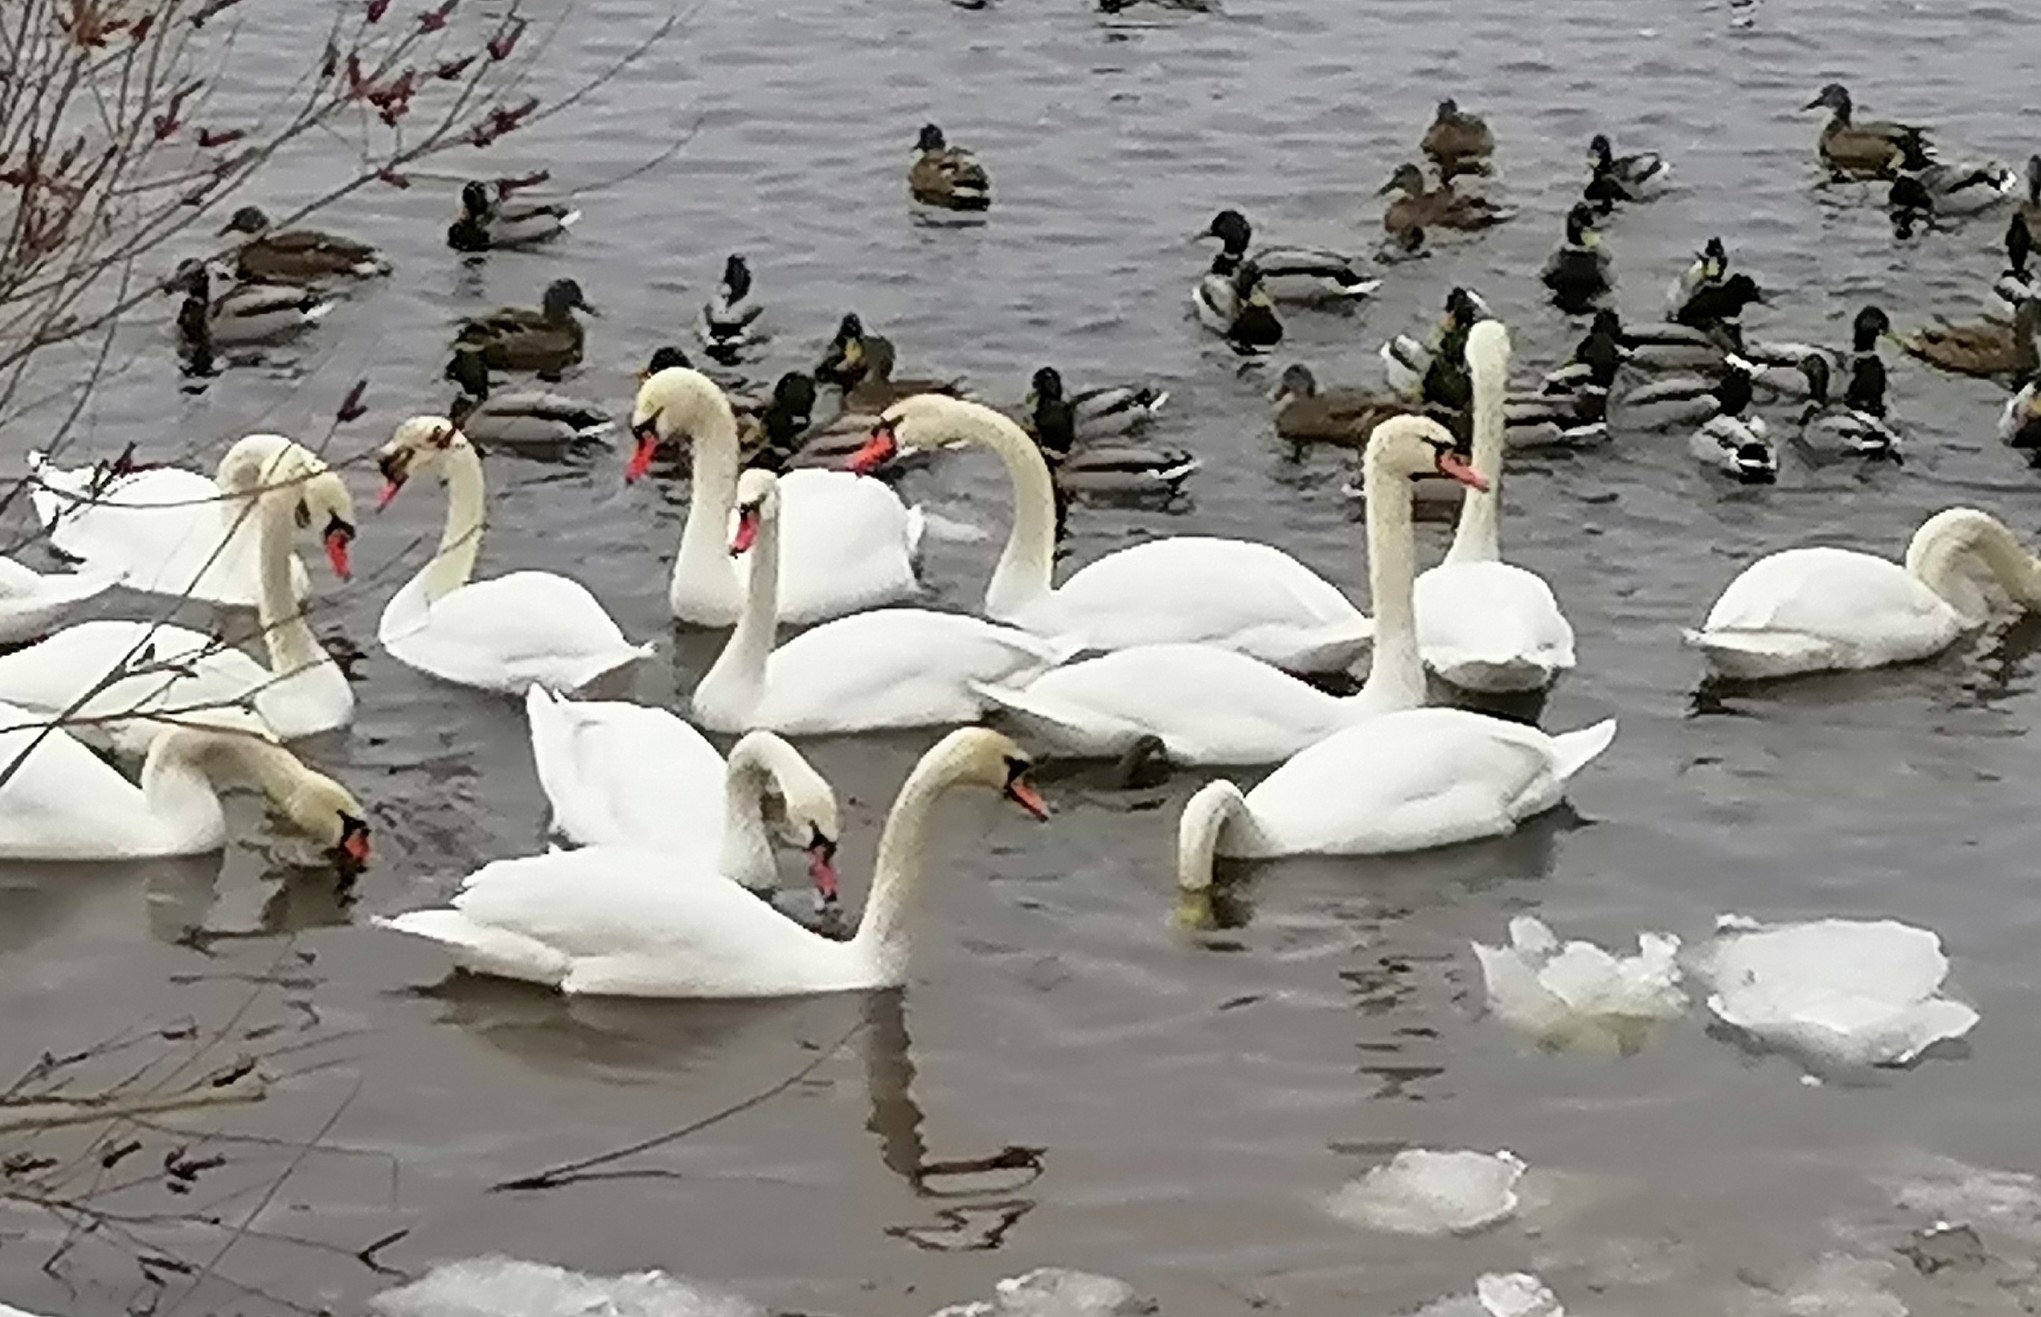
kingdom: Animalia
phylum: Chordata
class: Aves
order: Anseriformes
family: Anatidae
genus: Cygnus
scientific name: Cygnus olor
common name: Mute swan
